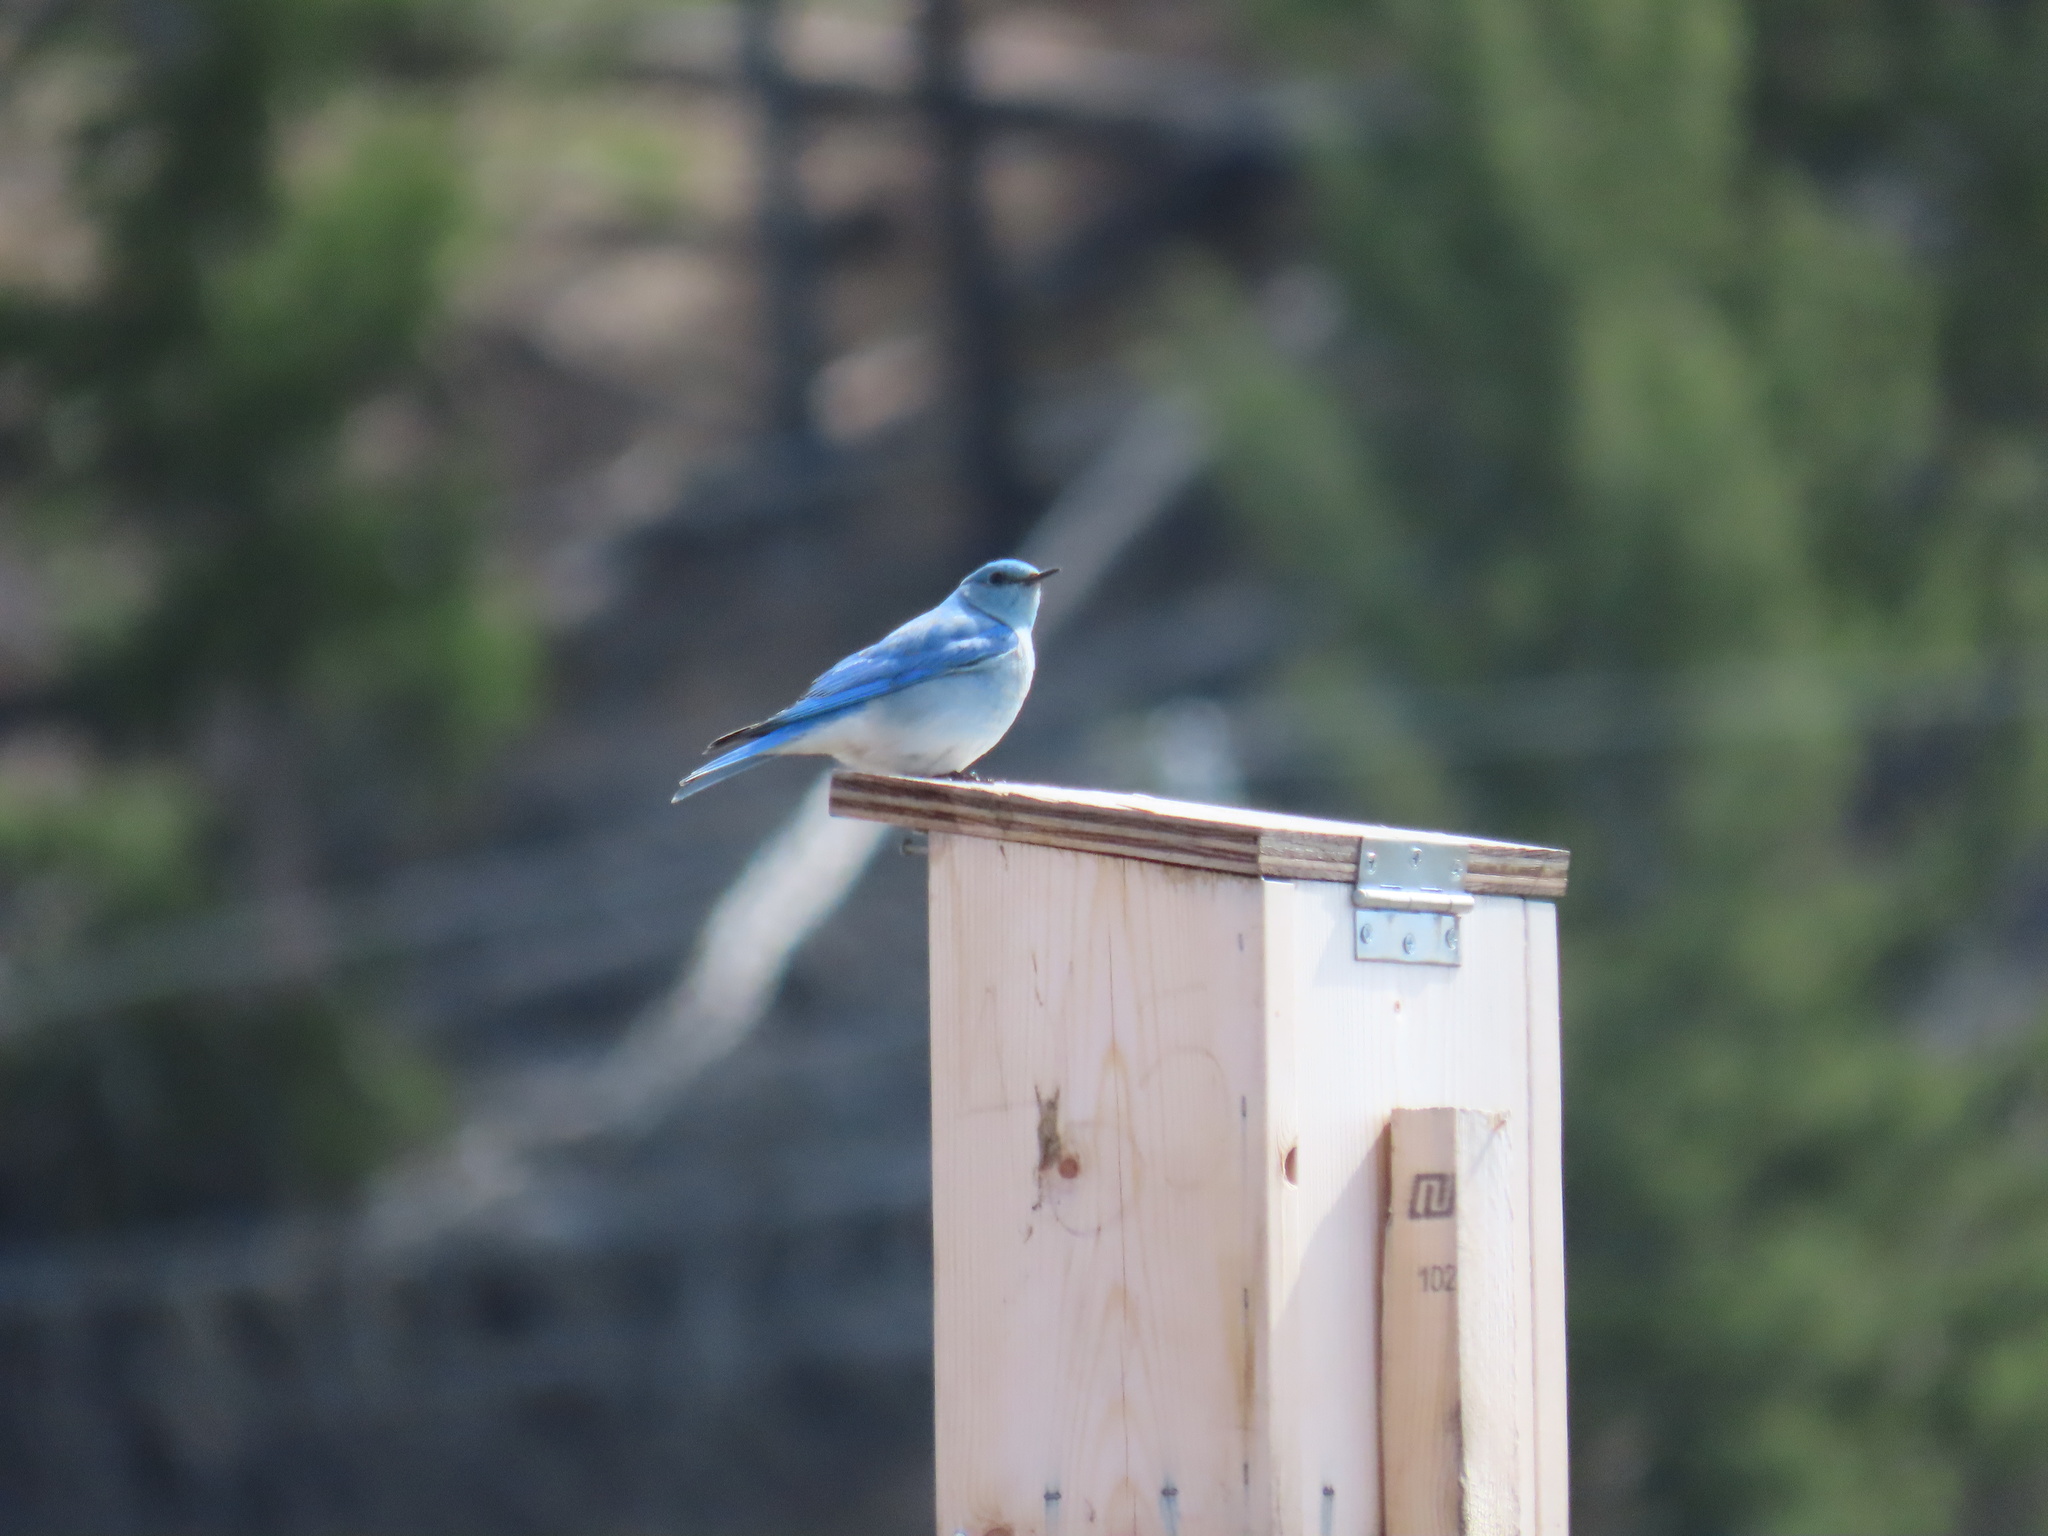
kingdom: Animalia
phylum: Chordata
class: Aves
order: Passeriformes
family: Turdidae
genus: Sialia
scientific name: Sialia currucoides
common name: Mountain bluebird
